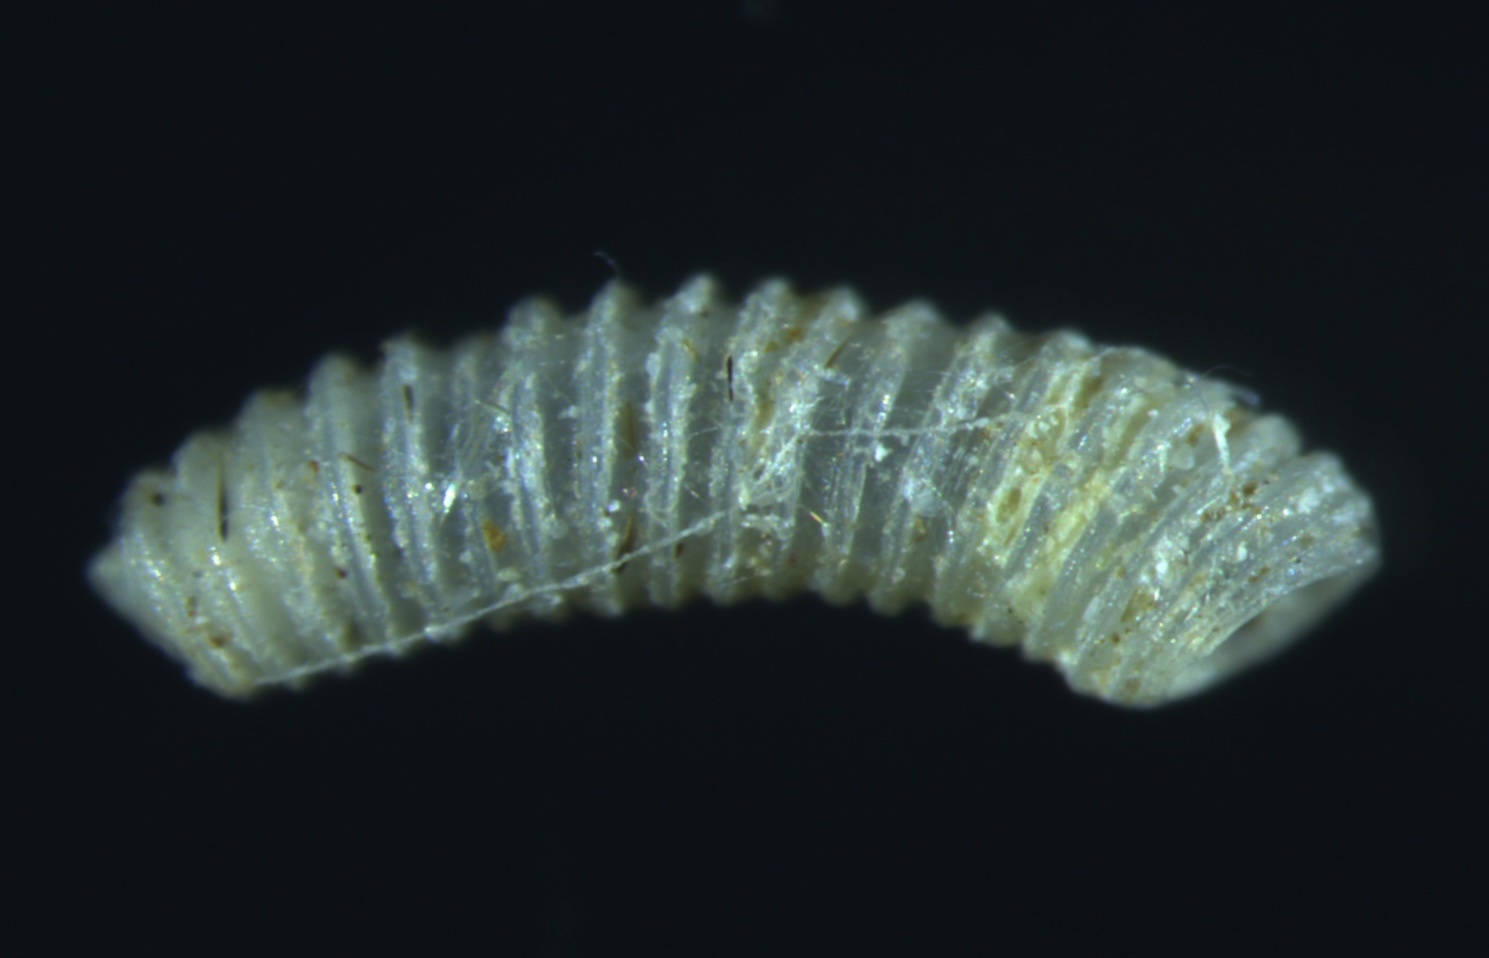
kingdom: Animalia
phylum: Mollusca
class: Gastropoda
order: Littorinimorpha
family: Caecidae
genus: Caecum
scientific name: Caecum tornatum
